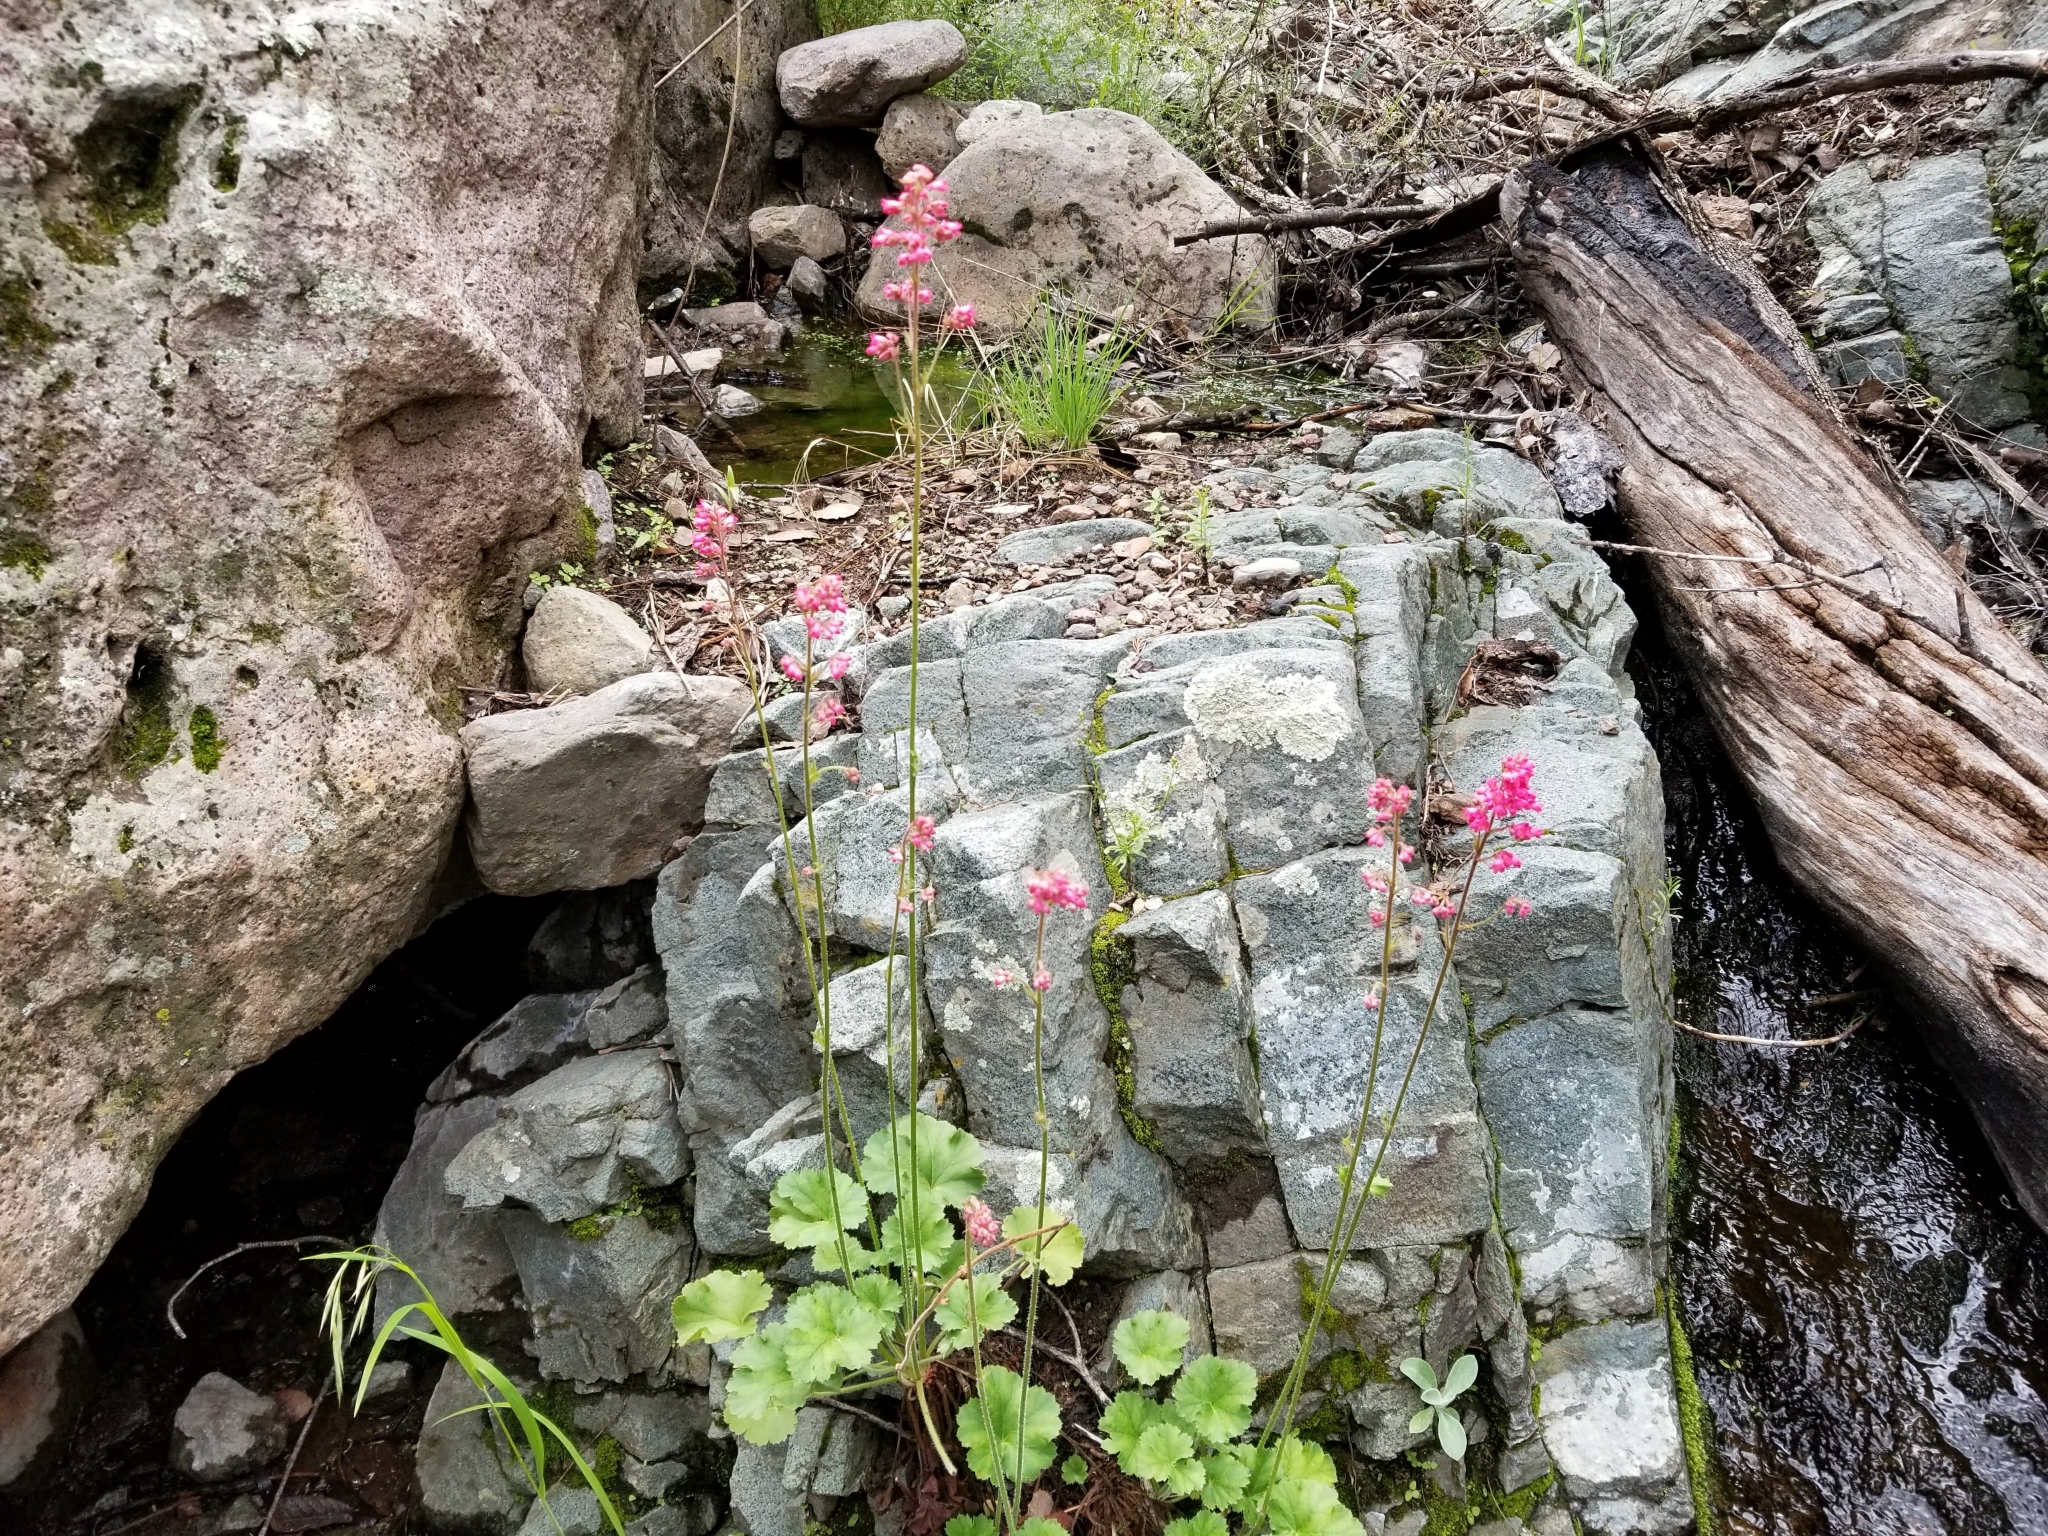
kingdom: Plantae
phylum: Tracheophyta
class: Magnoliopsida
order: Saxifragales
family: Saxifragaceae
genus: Heuchera
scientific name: Heuchera sanguinea
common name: Coralbells
